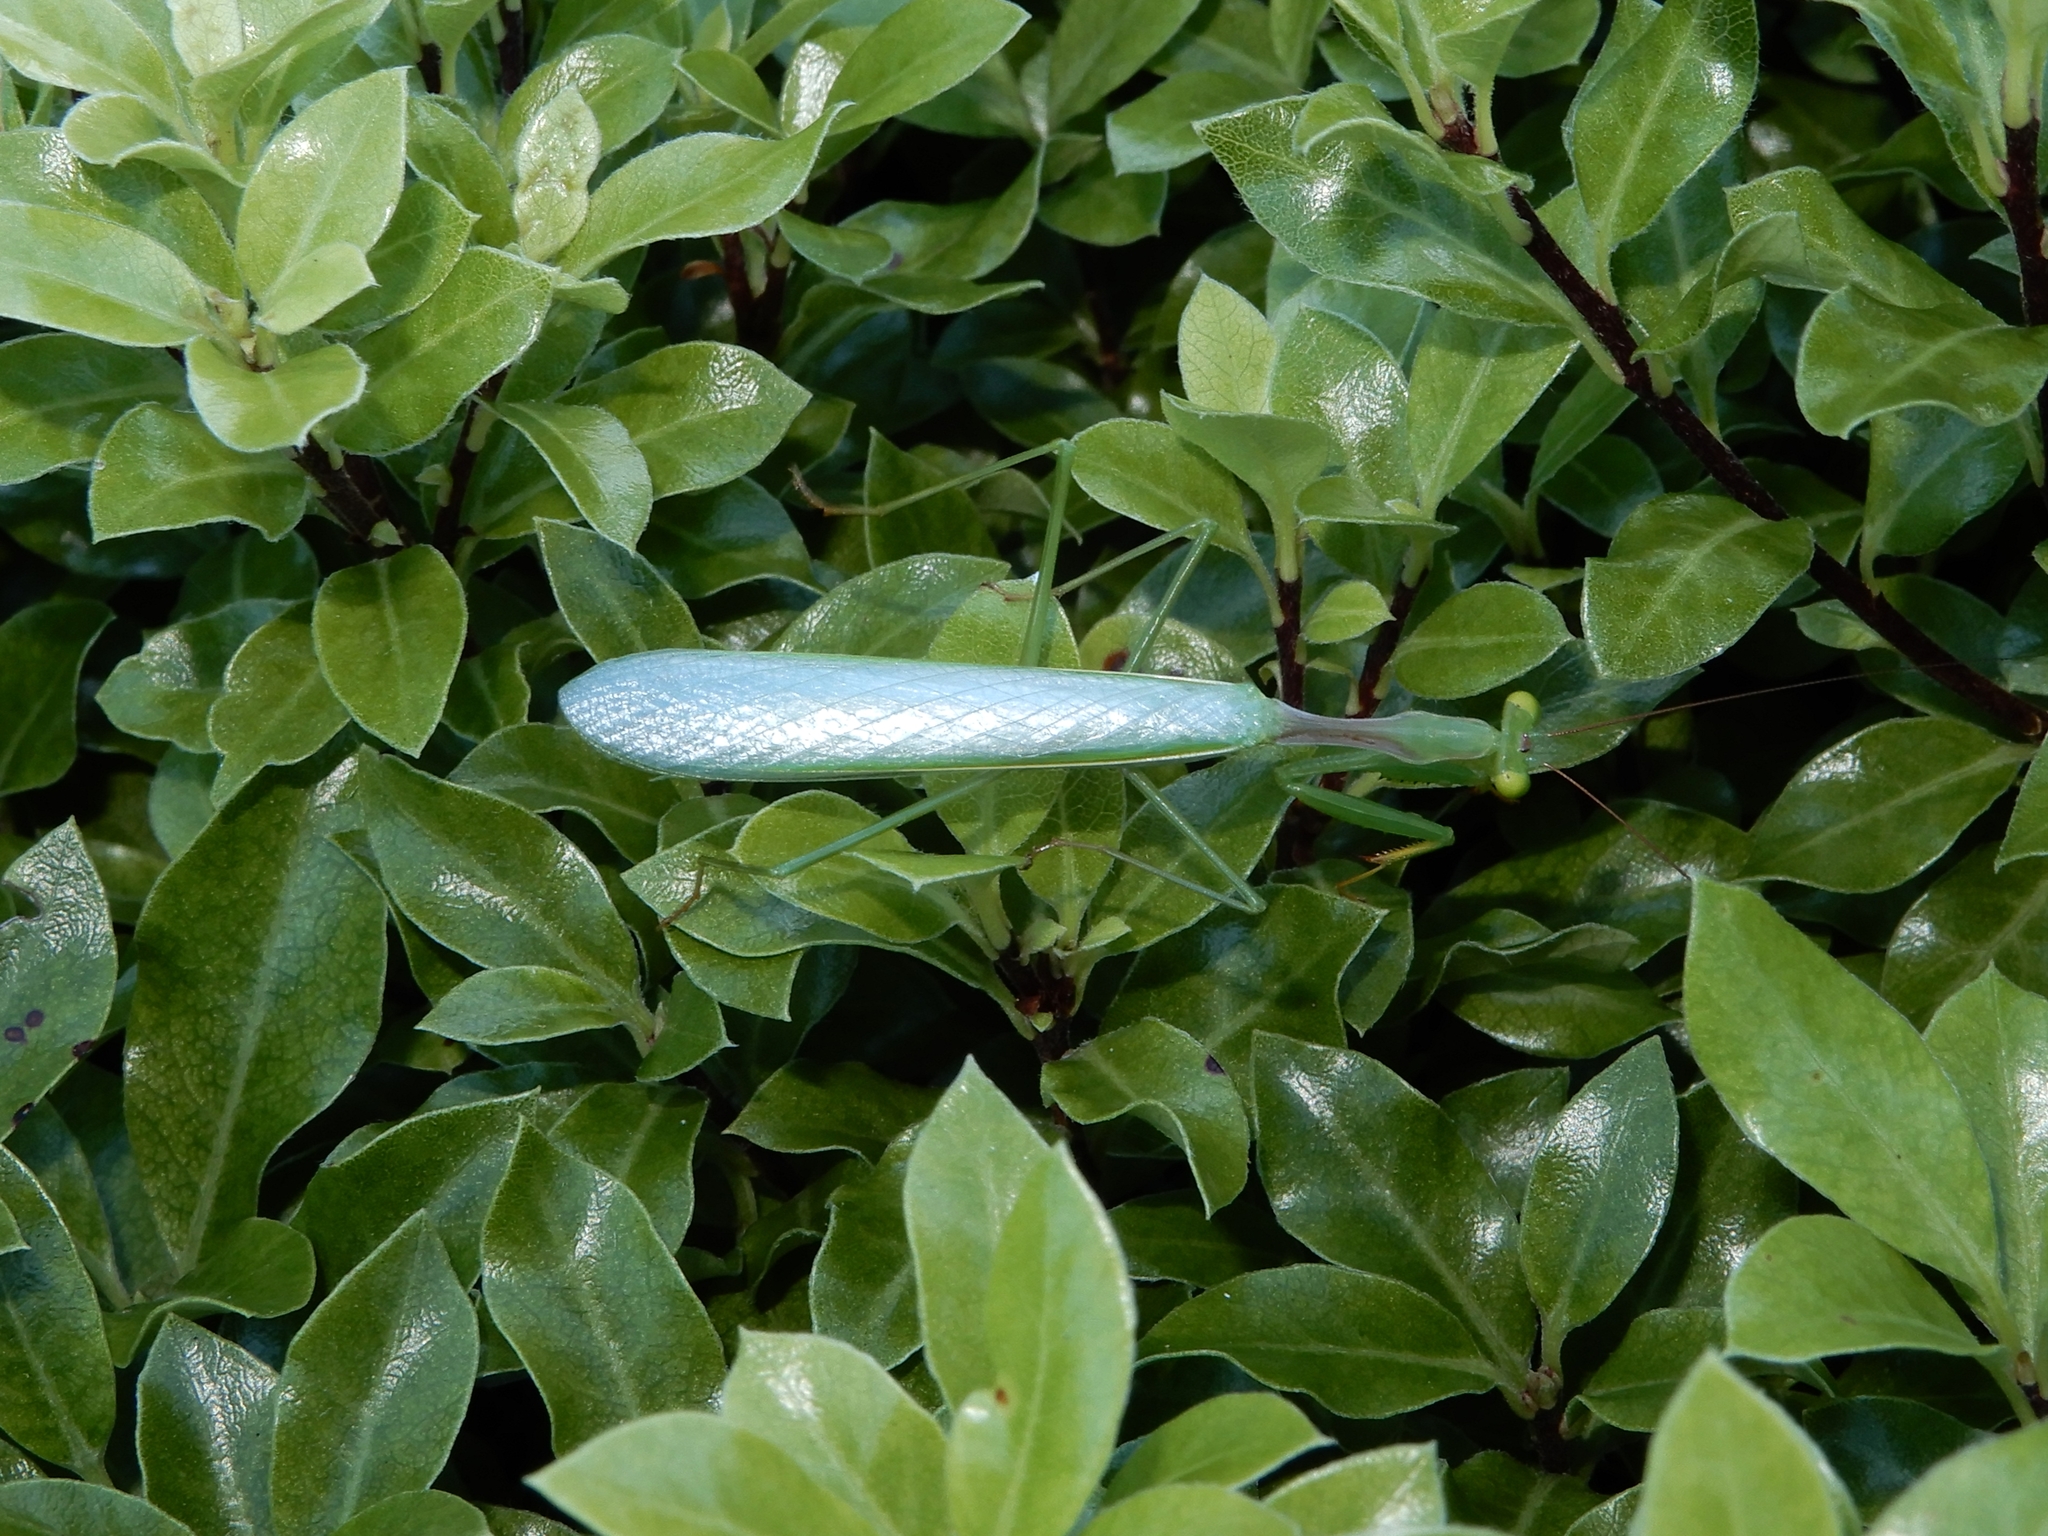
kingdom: Animalia
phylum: Arthropoda
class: Insecta
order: Mantodea
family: Miomantidae
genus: Miomantis
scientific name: Miomantis caffra
